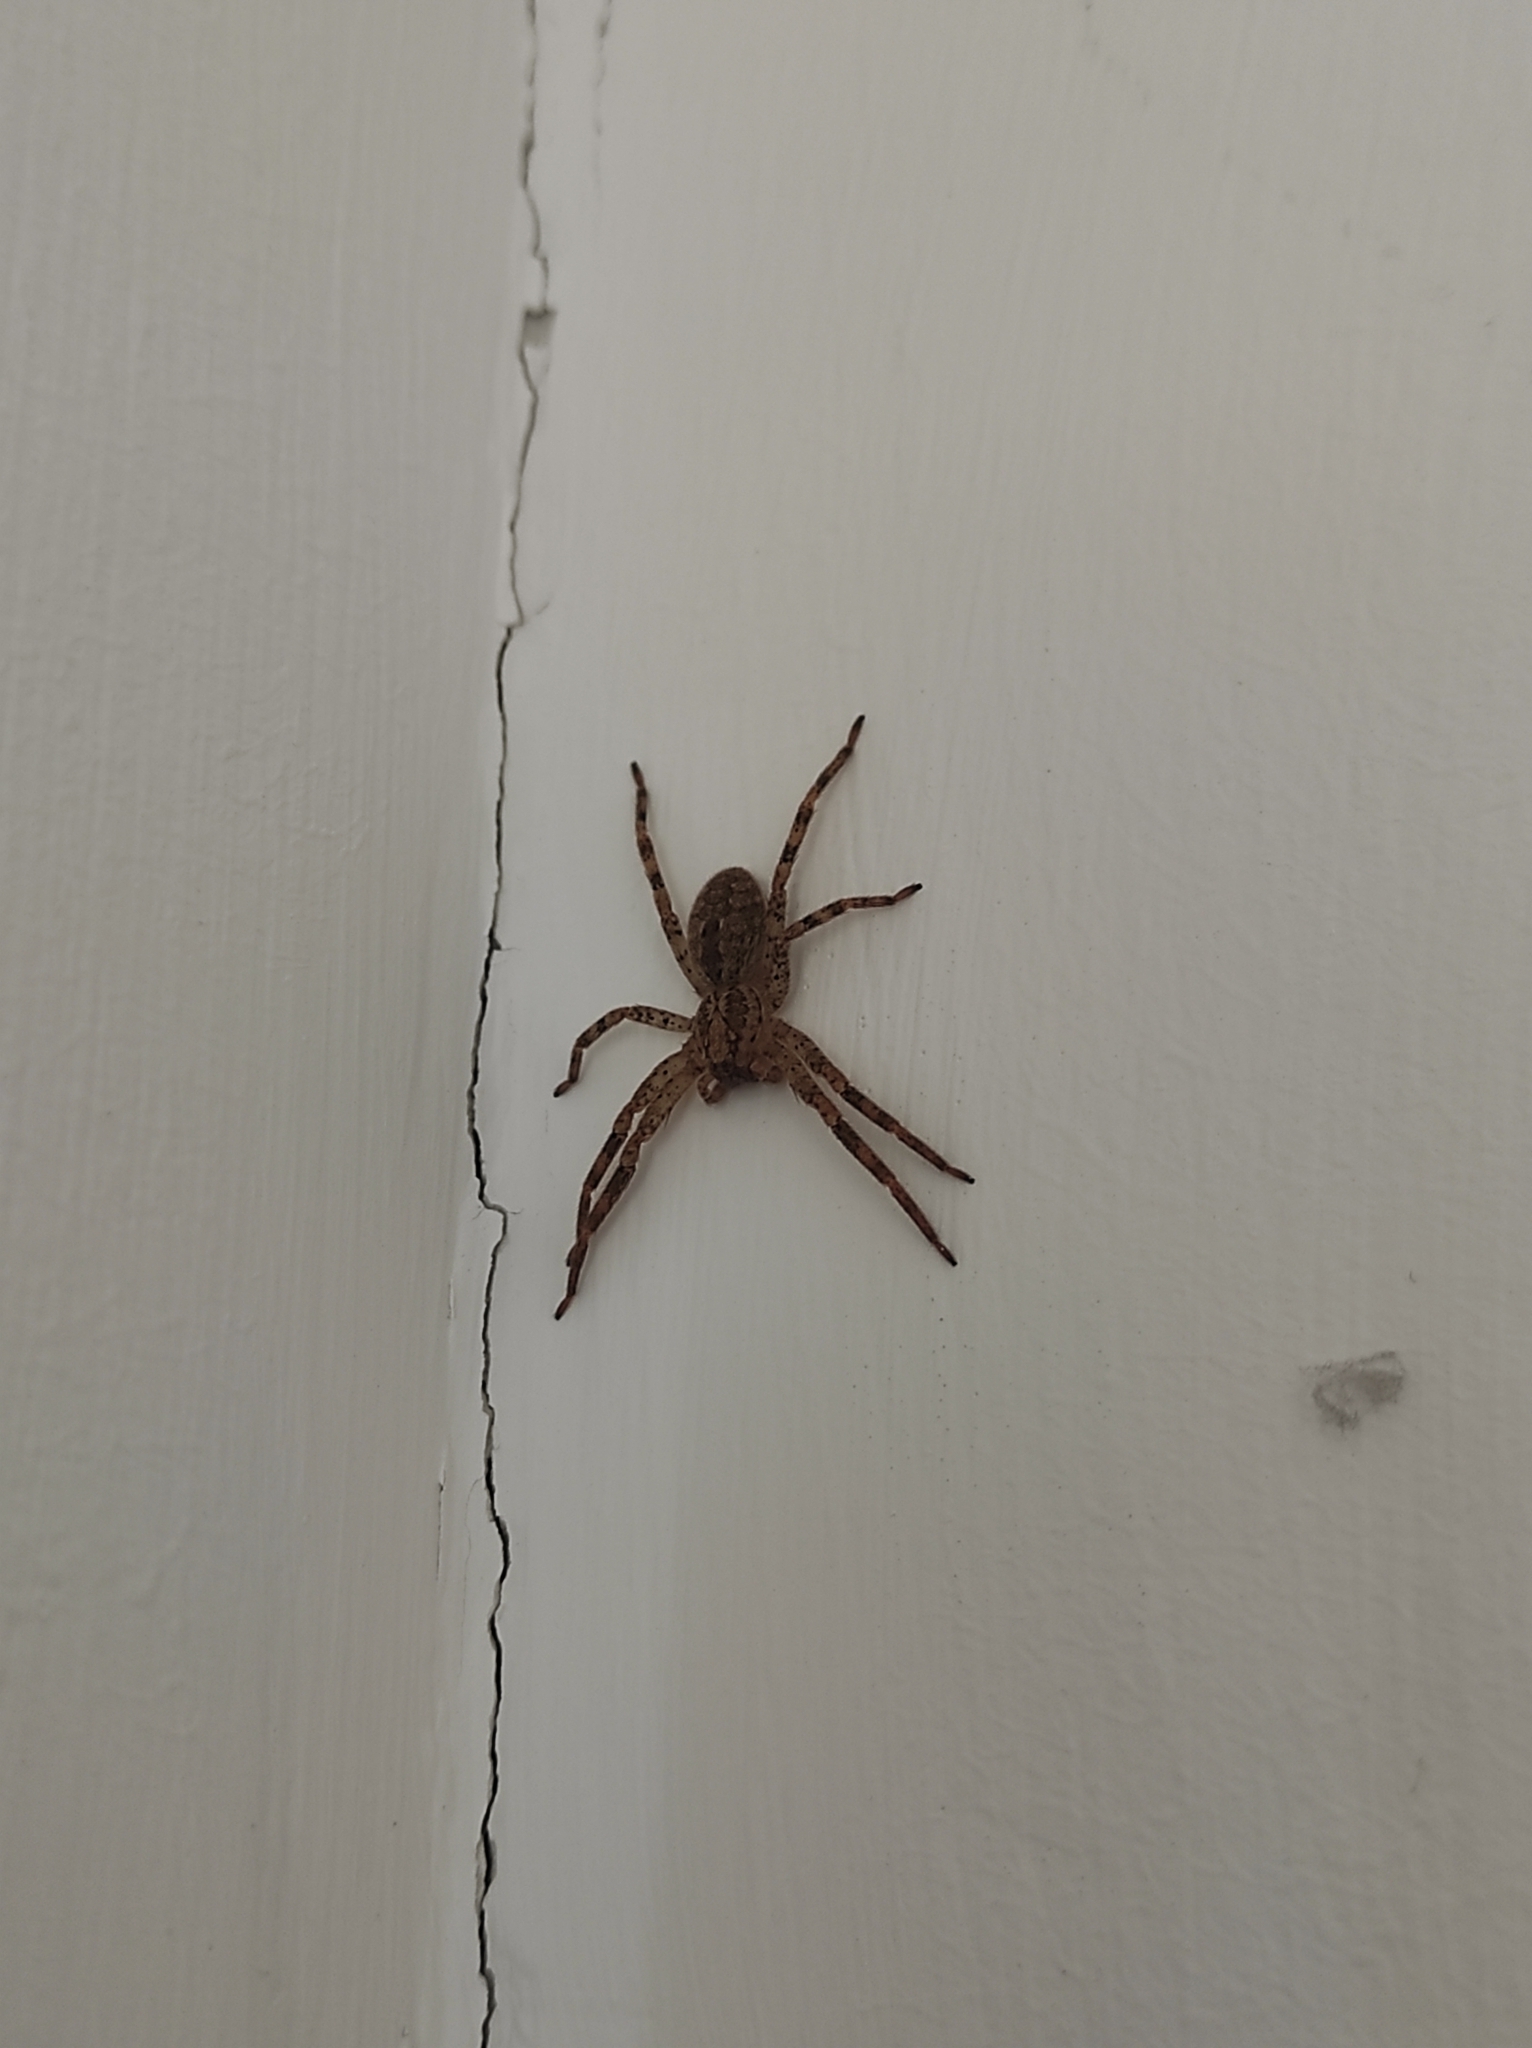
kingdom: Animalia
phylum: Arthropoda
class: Arachnida
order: Araneae
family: Zoropsidae
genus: Zoropsis
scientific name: Zoropsis spinimana
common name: Zoropsid spider
